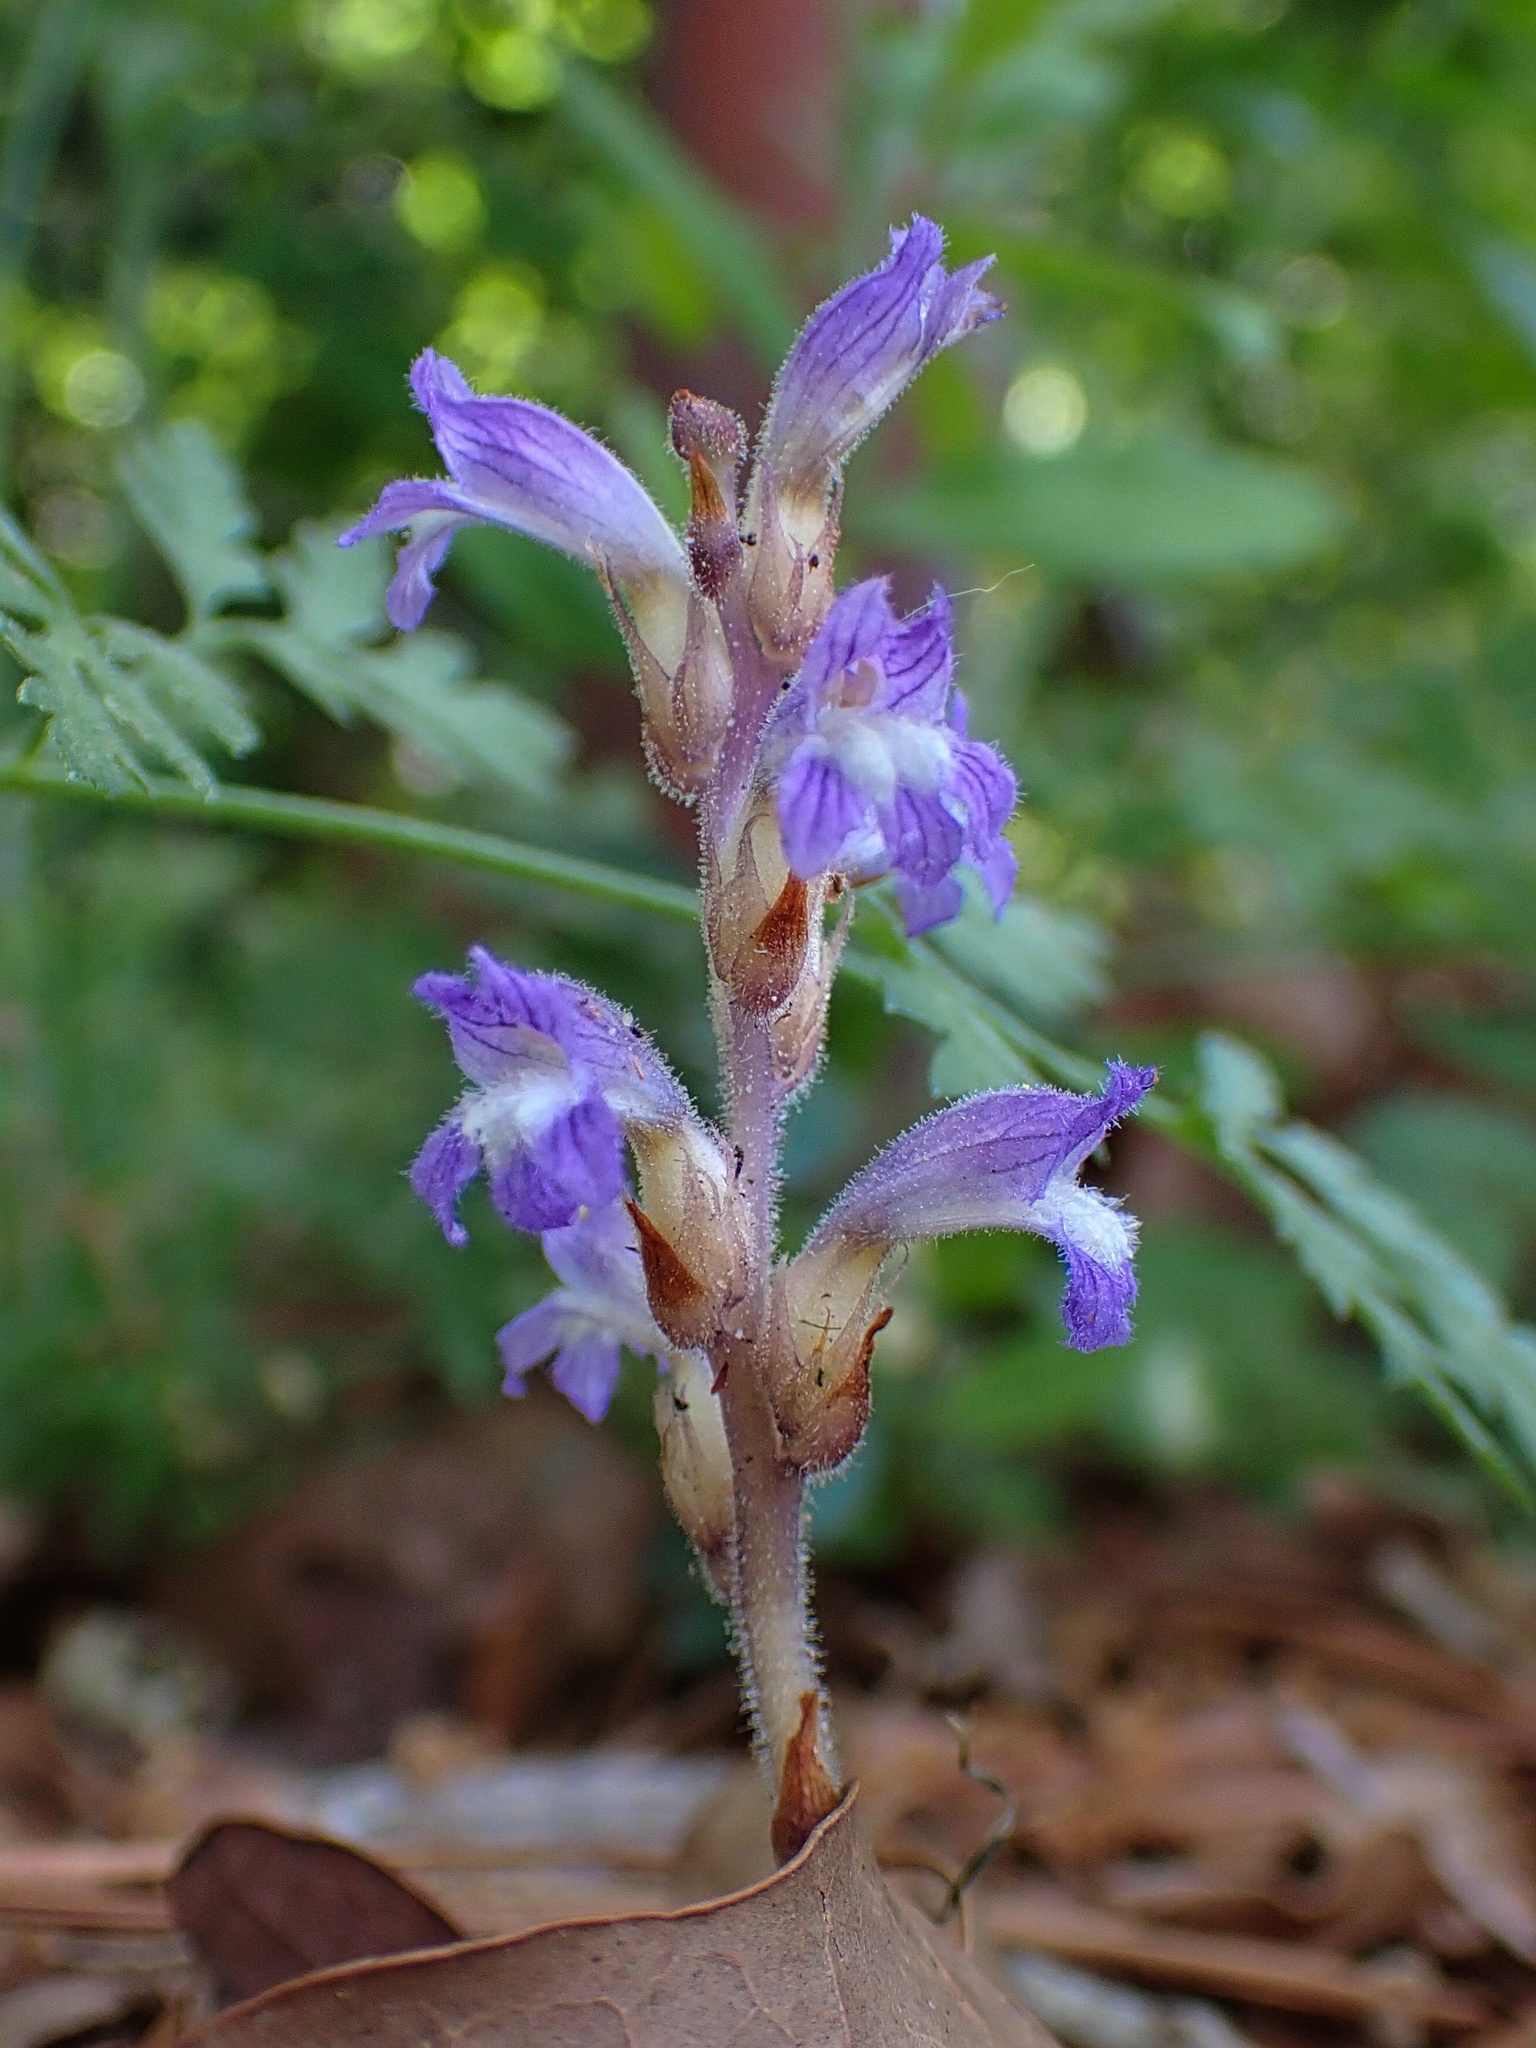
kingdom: Plantae
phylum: Tracheophyta
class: Magnoliopsida
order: Lamiales
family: Orobanchaceae
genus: Phelipanche
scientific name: Phelipanche mutelii
